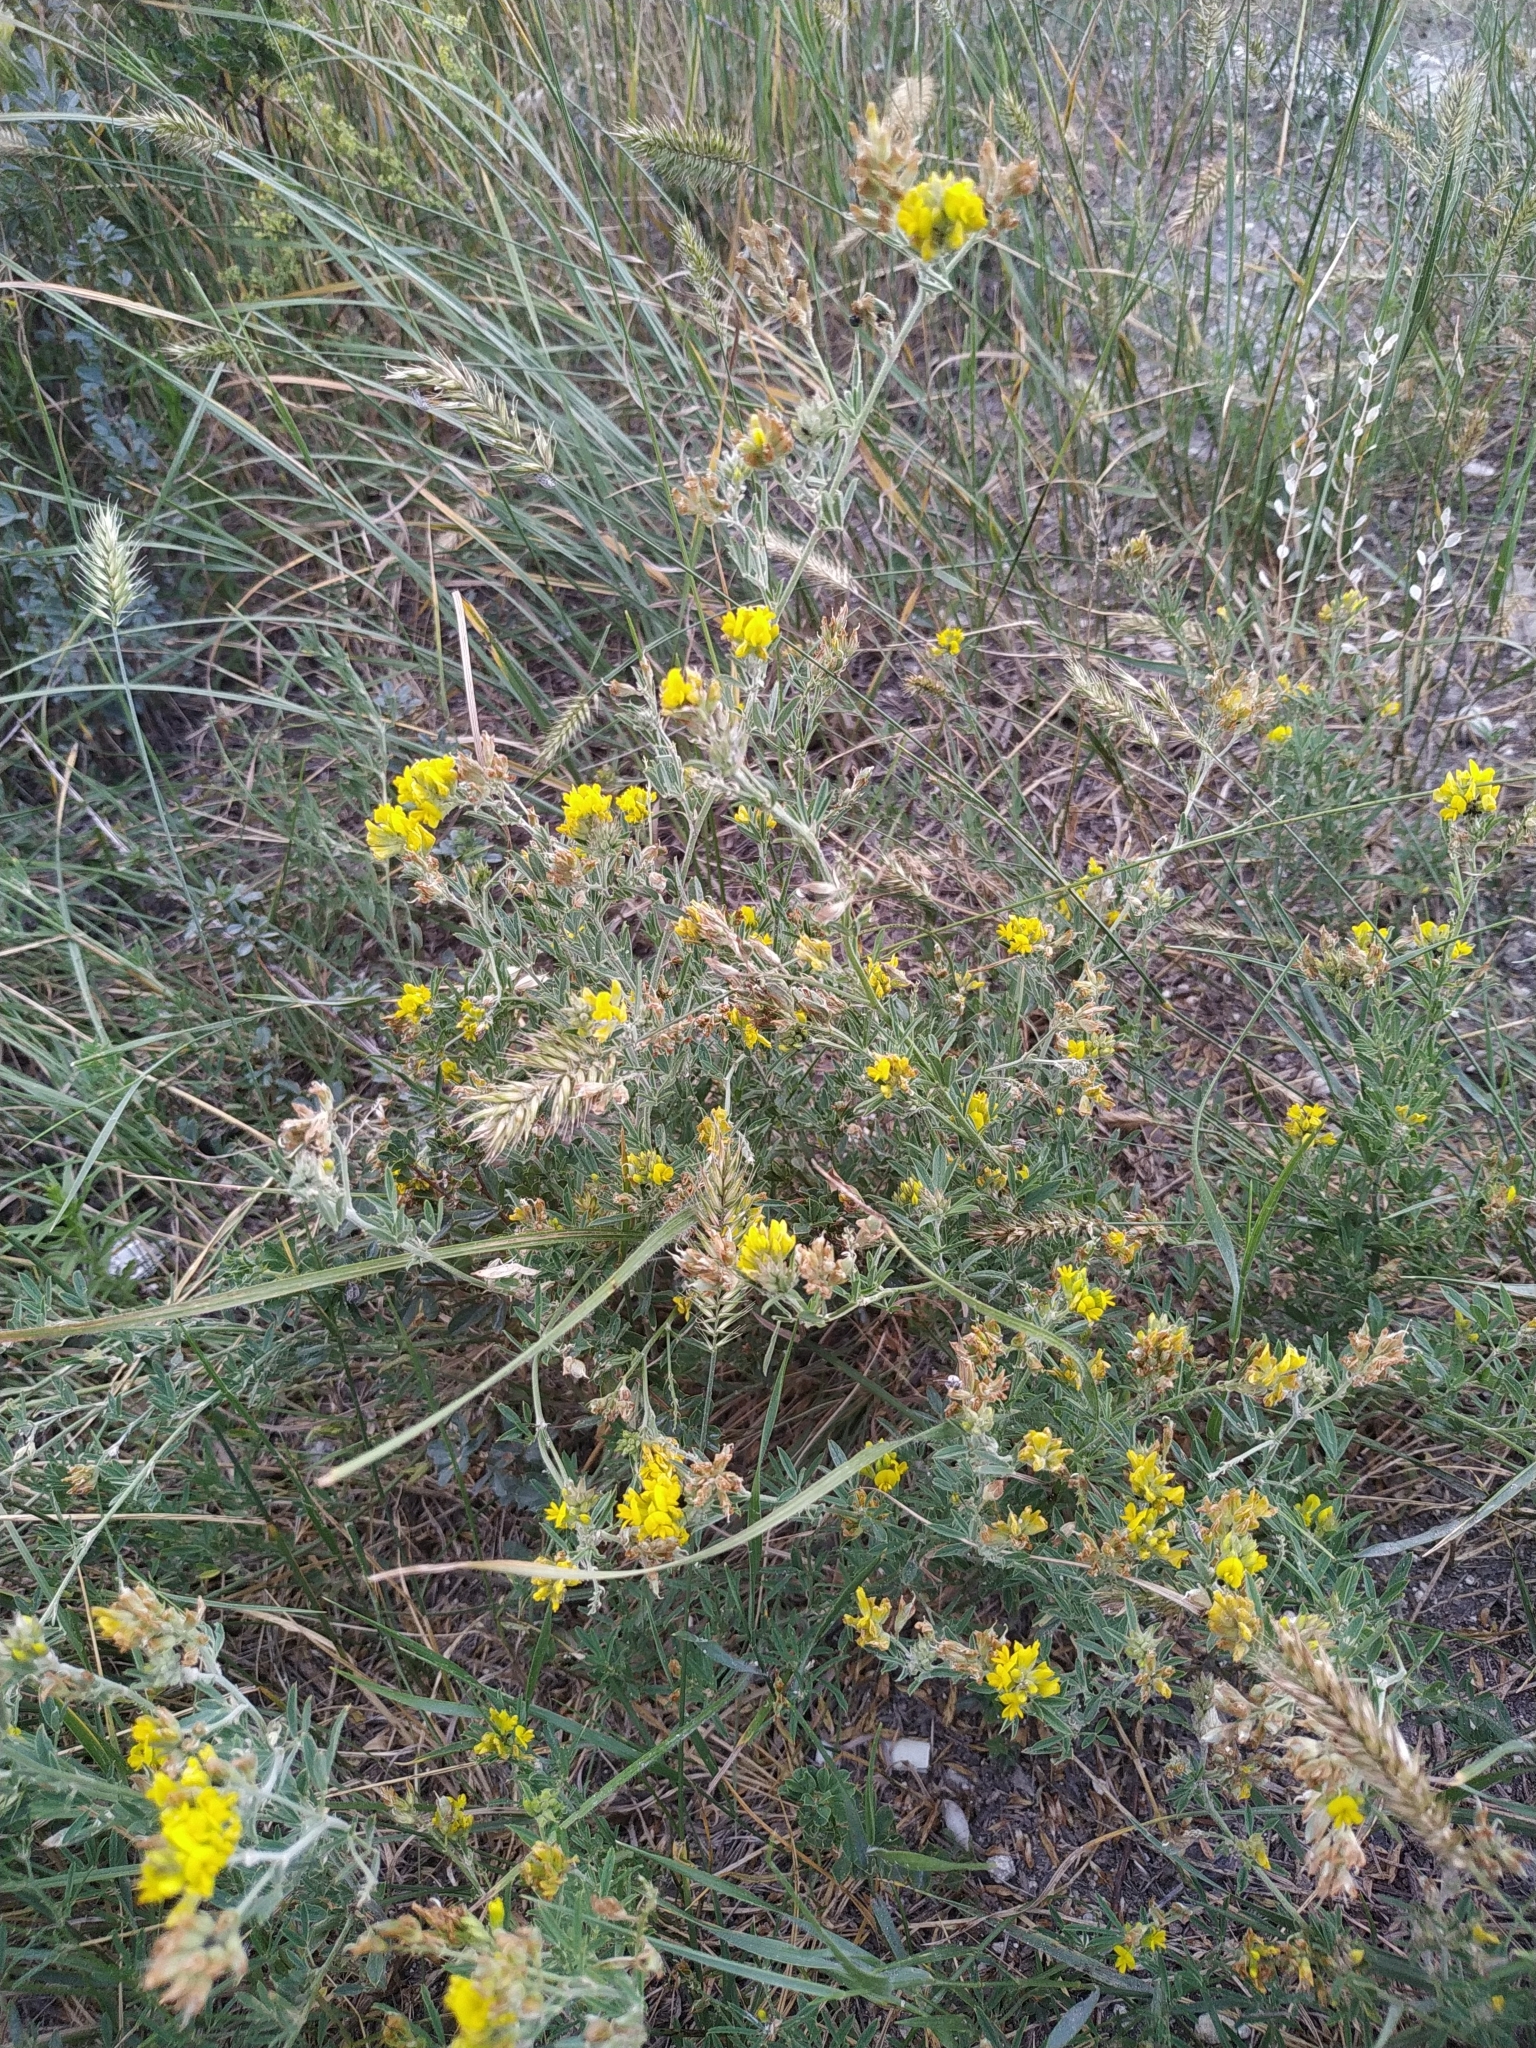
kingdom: Plantae
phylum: Tracheophyta
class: Magnoliopsida
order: Fabales
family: Fabaceae
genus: Medicago
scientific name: Medicago falcata
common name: Sickle medick
